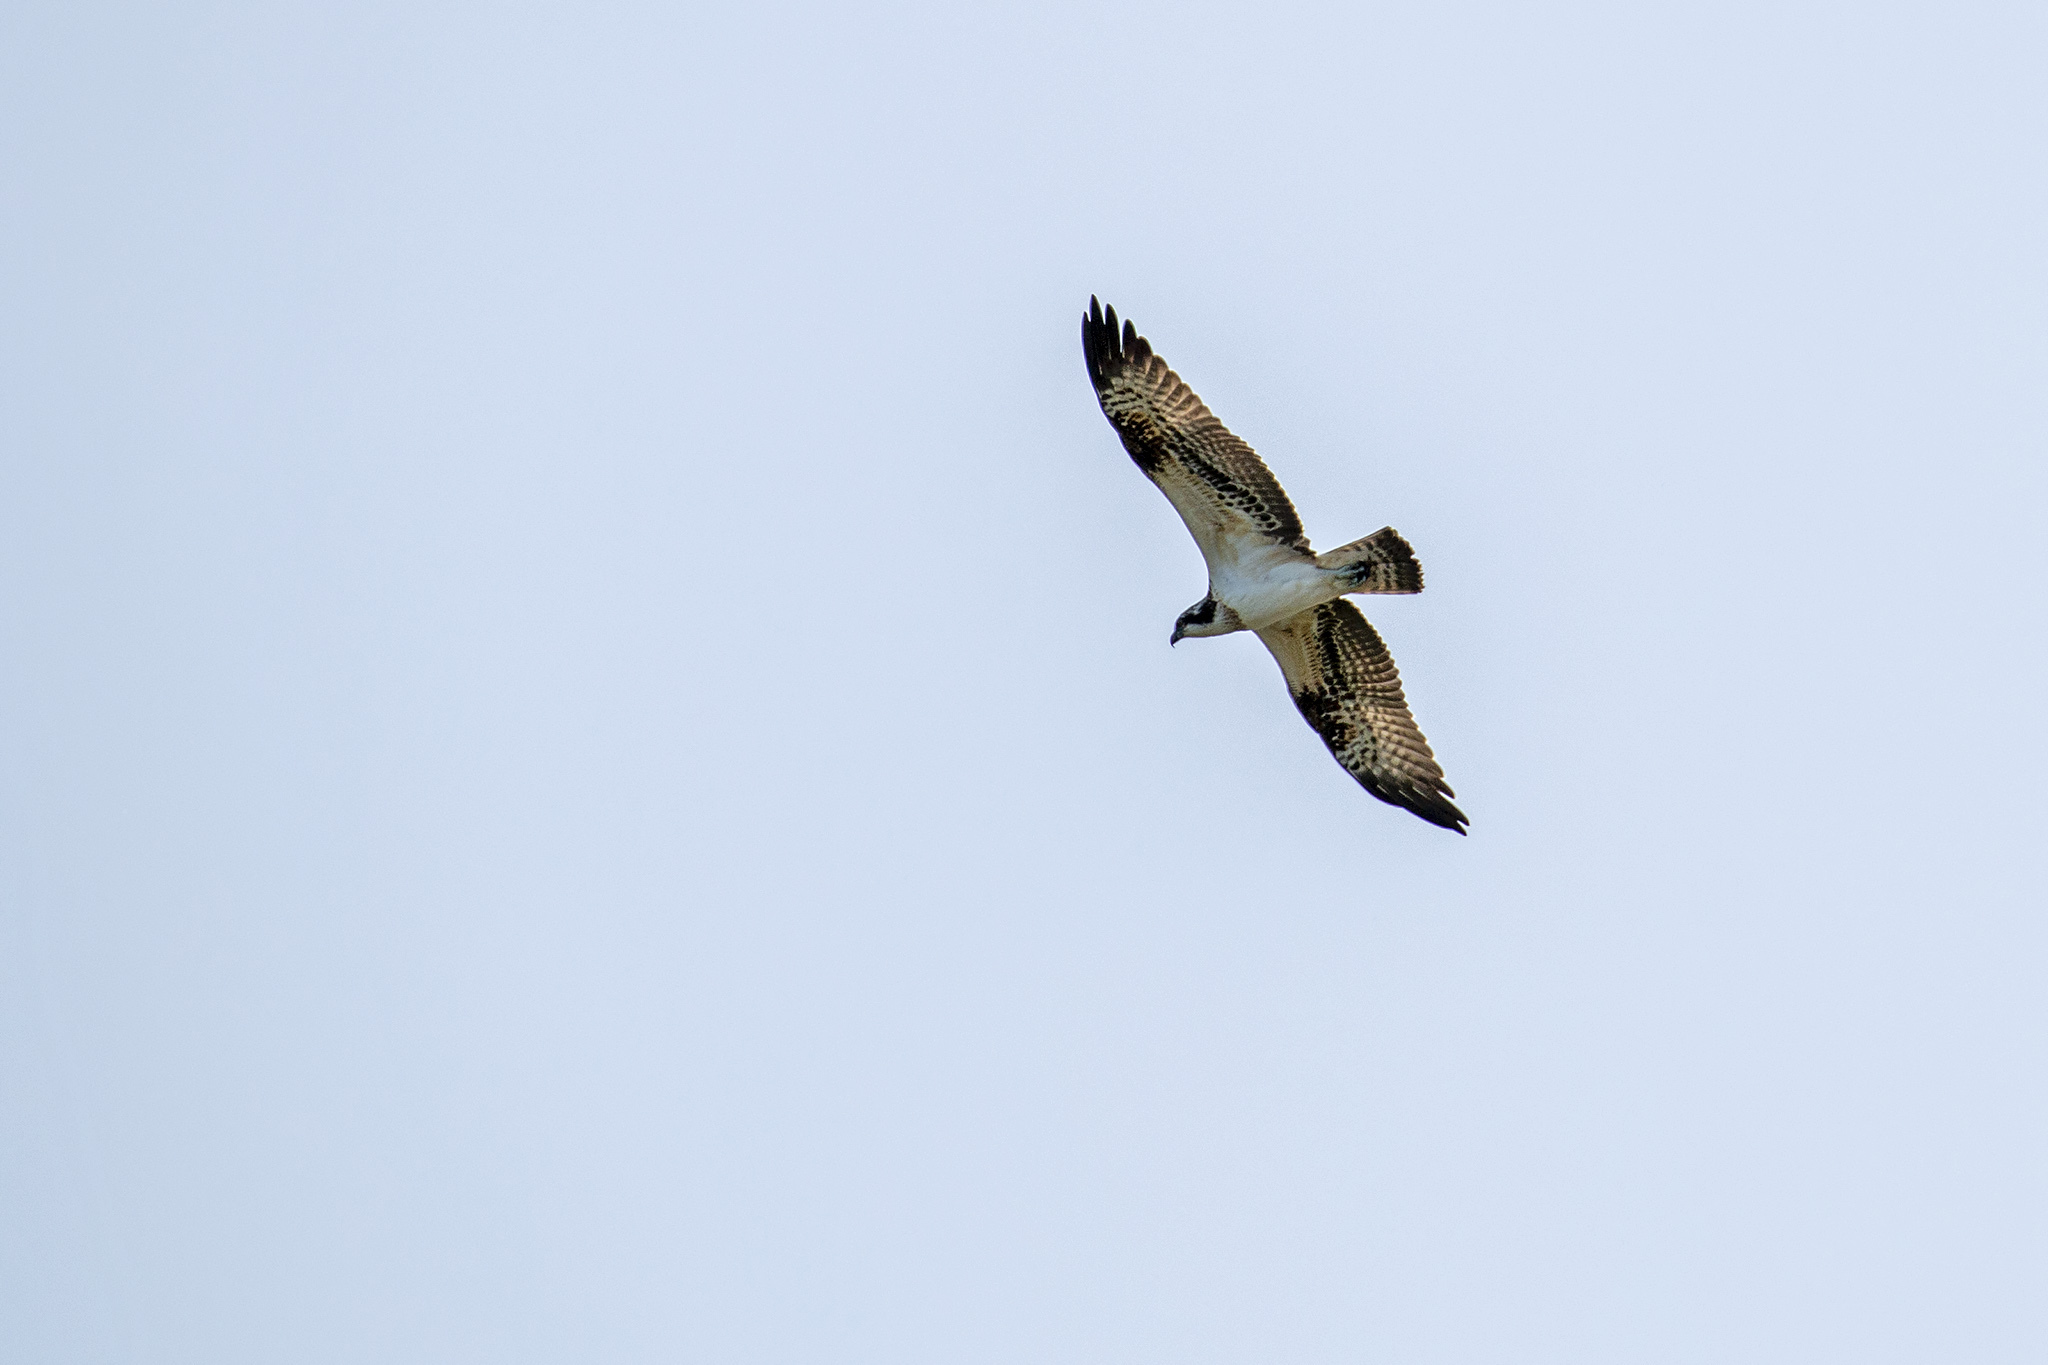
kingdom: Animalia
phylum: Chordata
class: Aves
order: Accipitriformes
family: Pandionidae
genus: Pandion
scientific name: Pandion haliaetus
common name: Osprey
